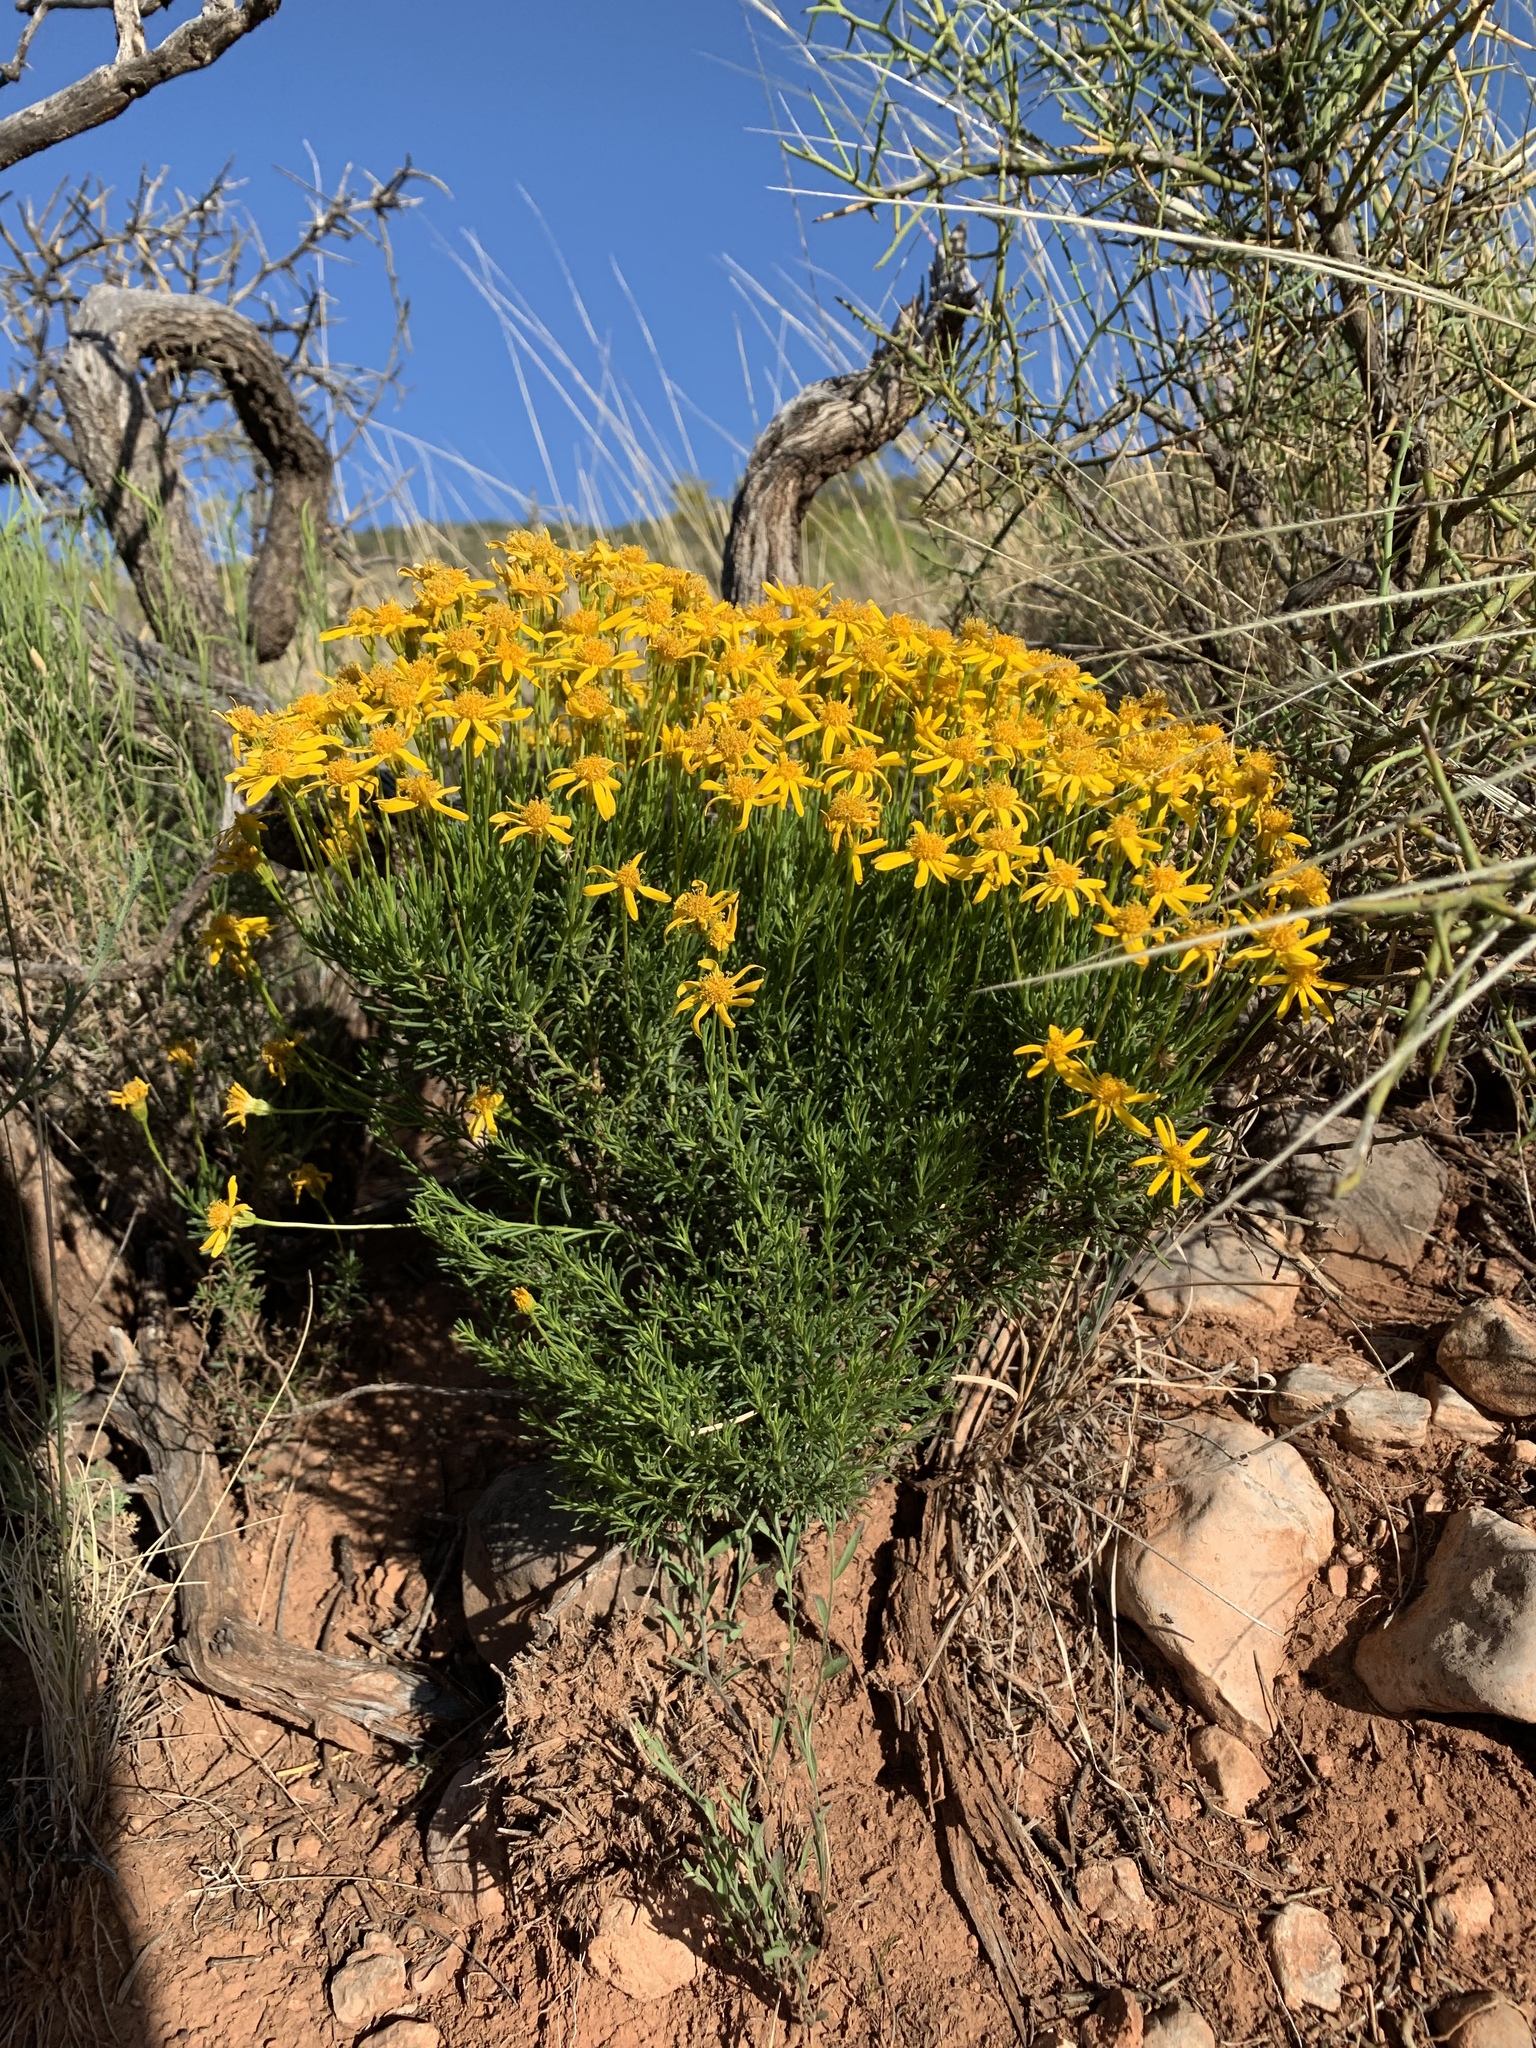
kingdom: Plantae
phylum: Tracheophyta
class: Magnoliopsida
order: Asterales
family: Asteraceae
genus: Chrysactinia
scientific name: Chrysactinia mexicana
